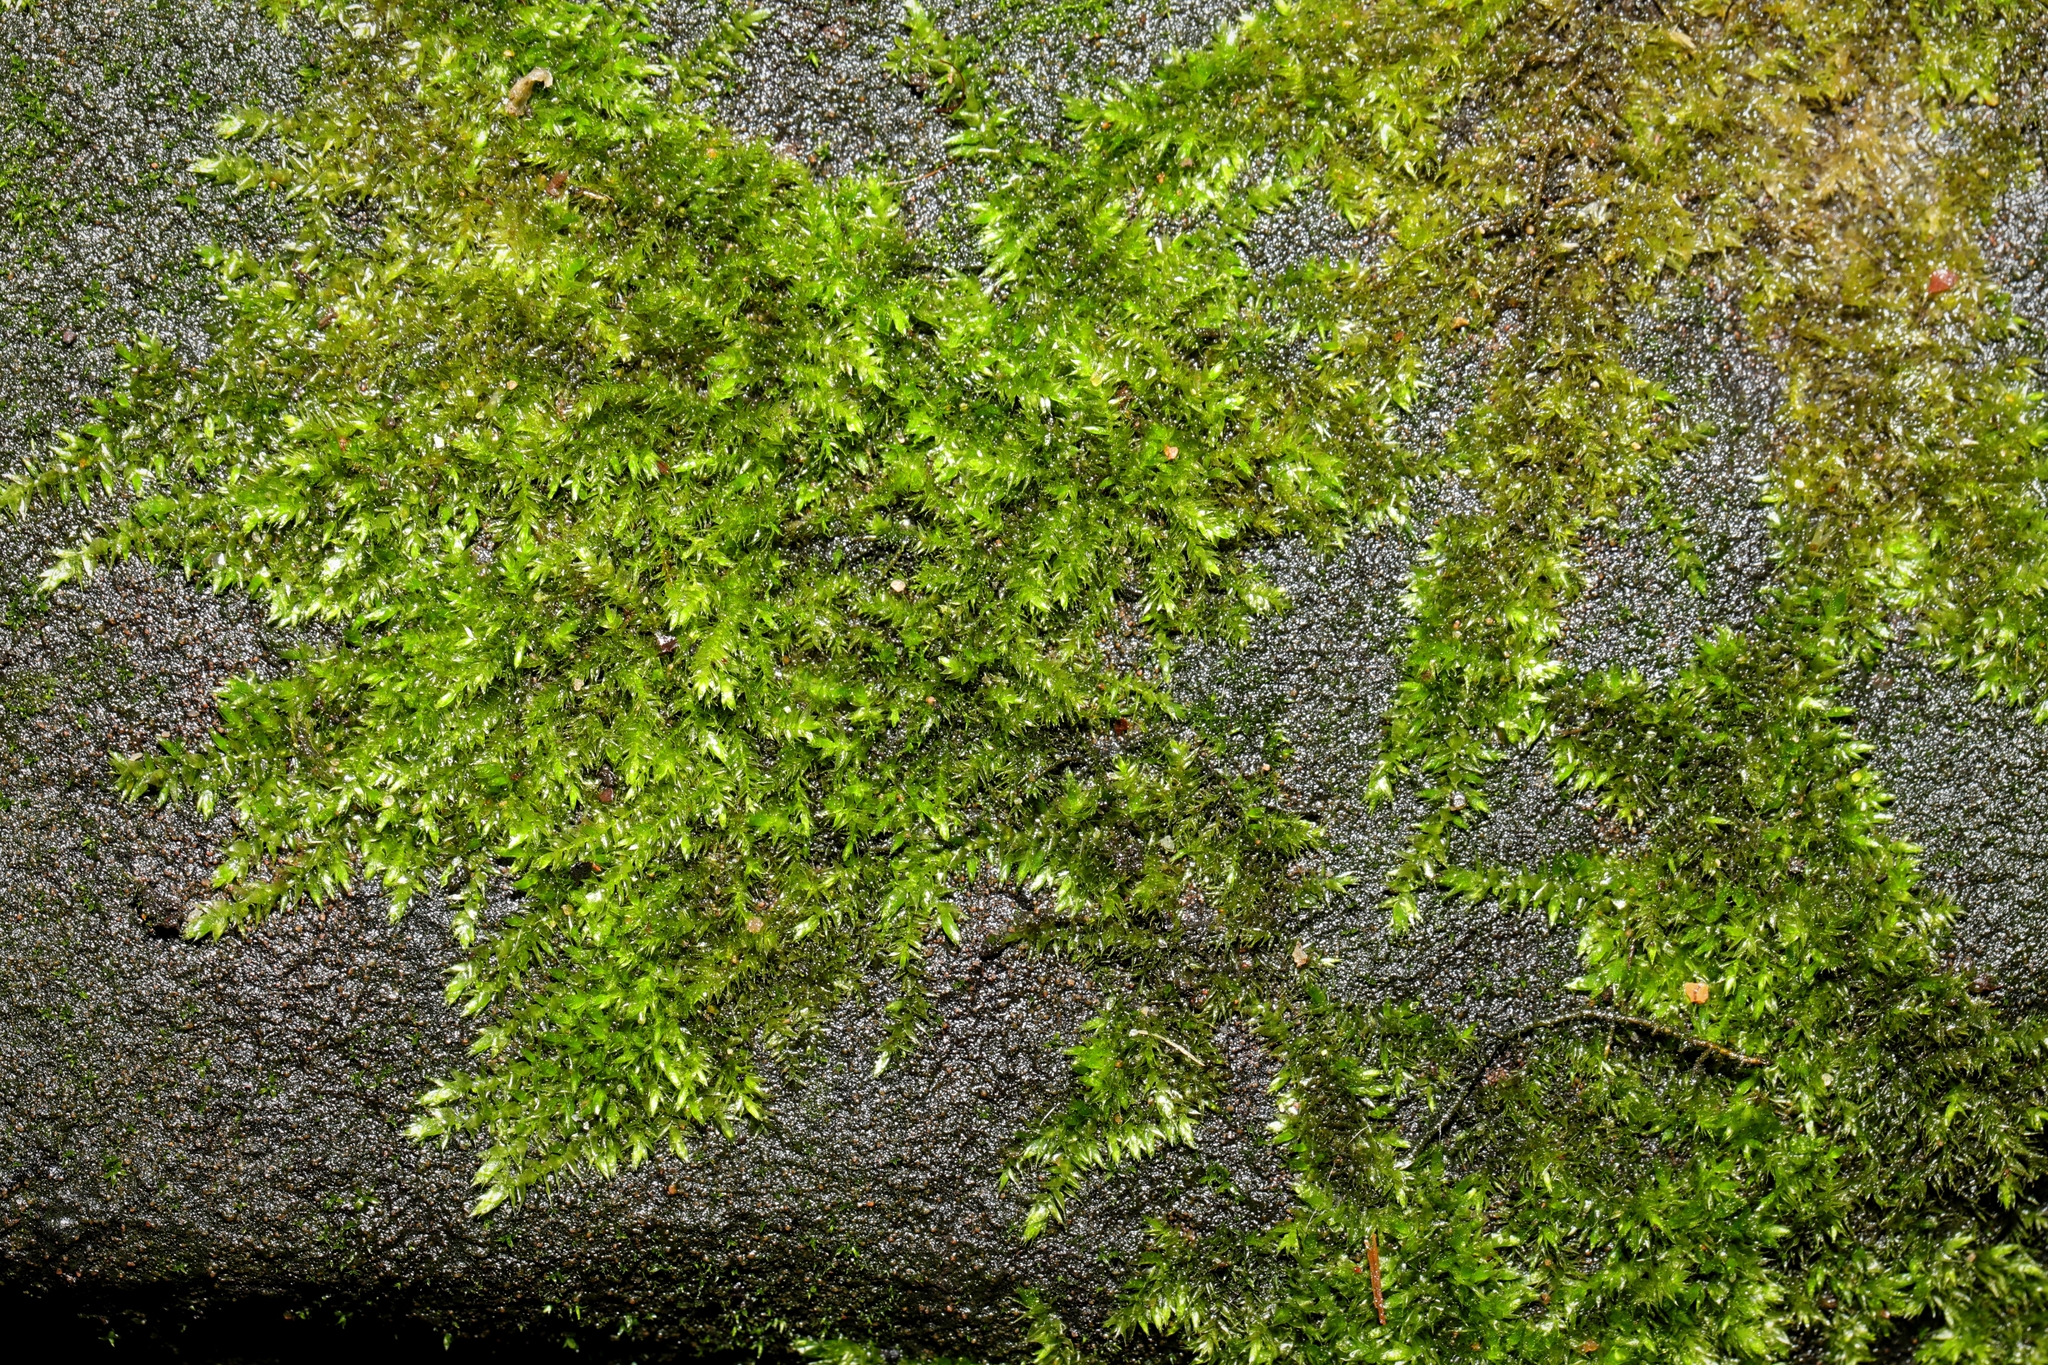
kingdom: Plantae
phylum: Bryophyta
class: Bryopsida
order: Hypnales
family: Brachytheciaceae
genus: Rhynchostegium
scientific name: Rhynchostegium confertum
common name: Clustered feather-moss
